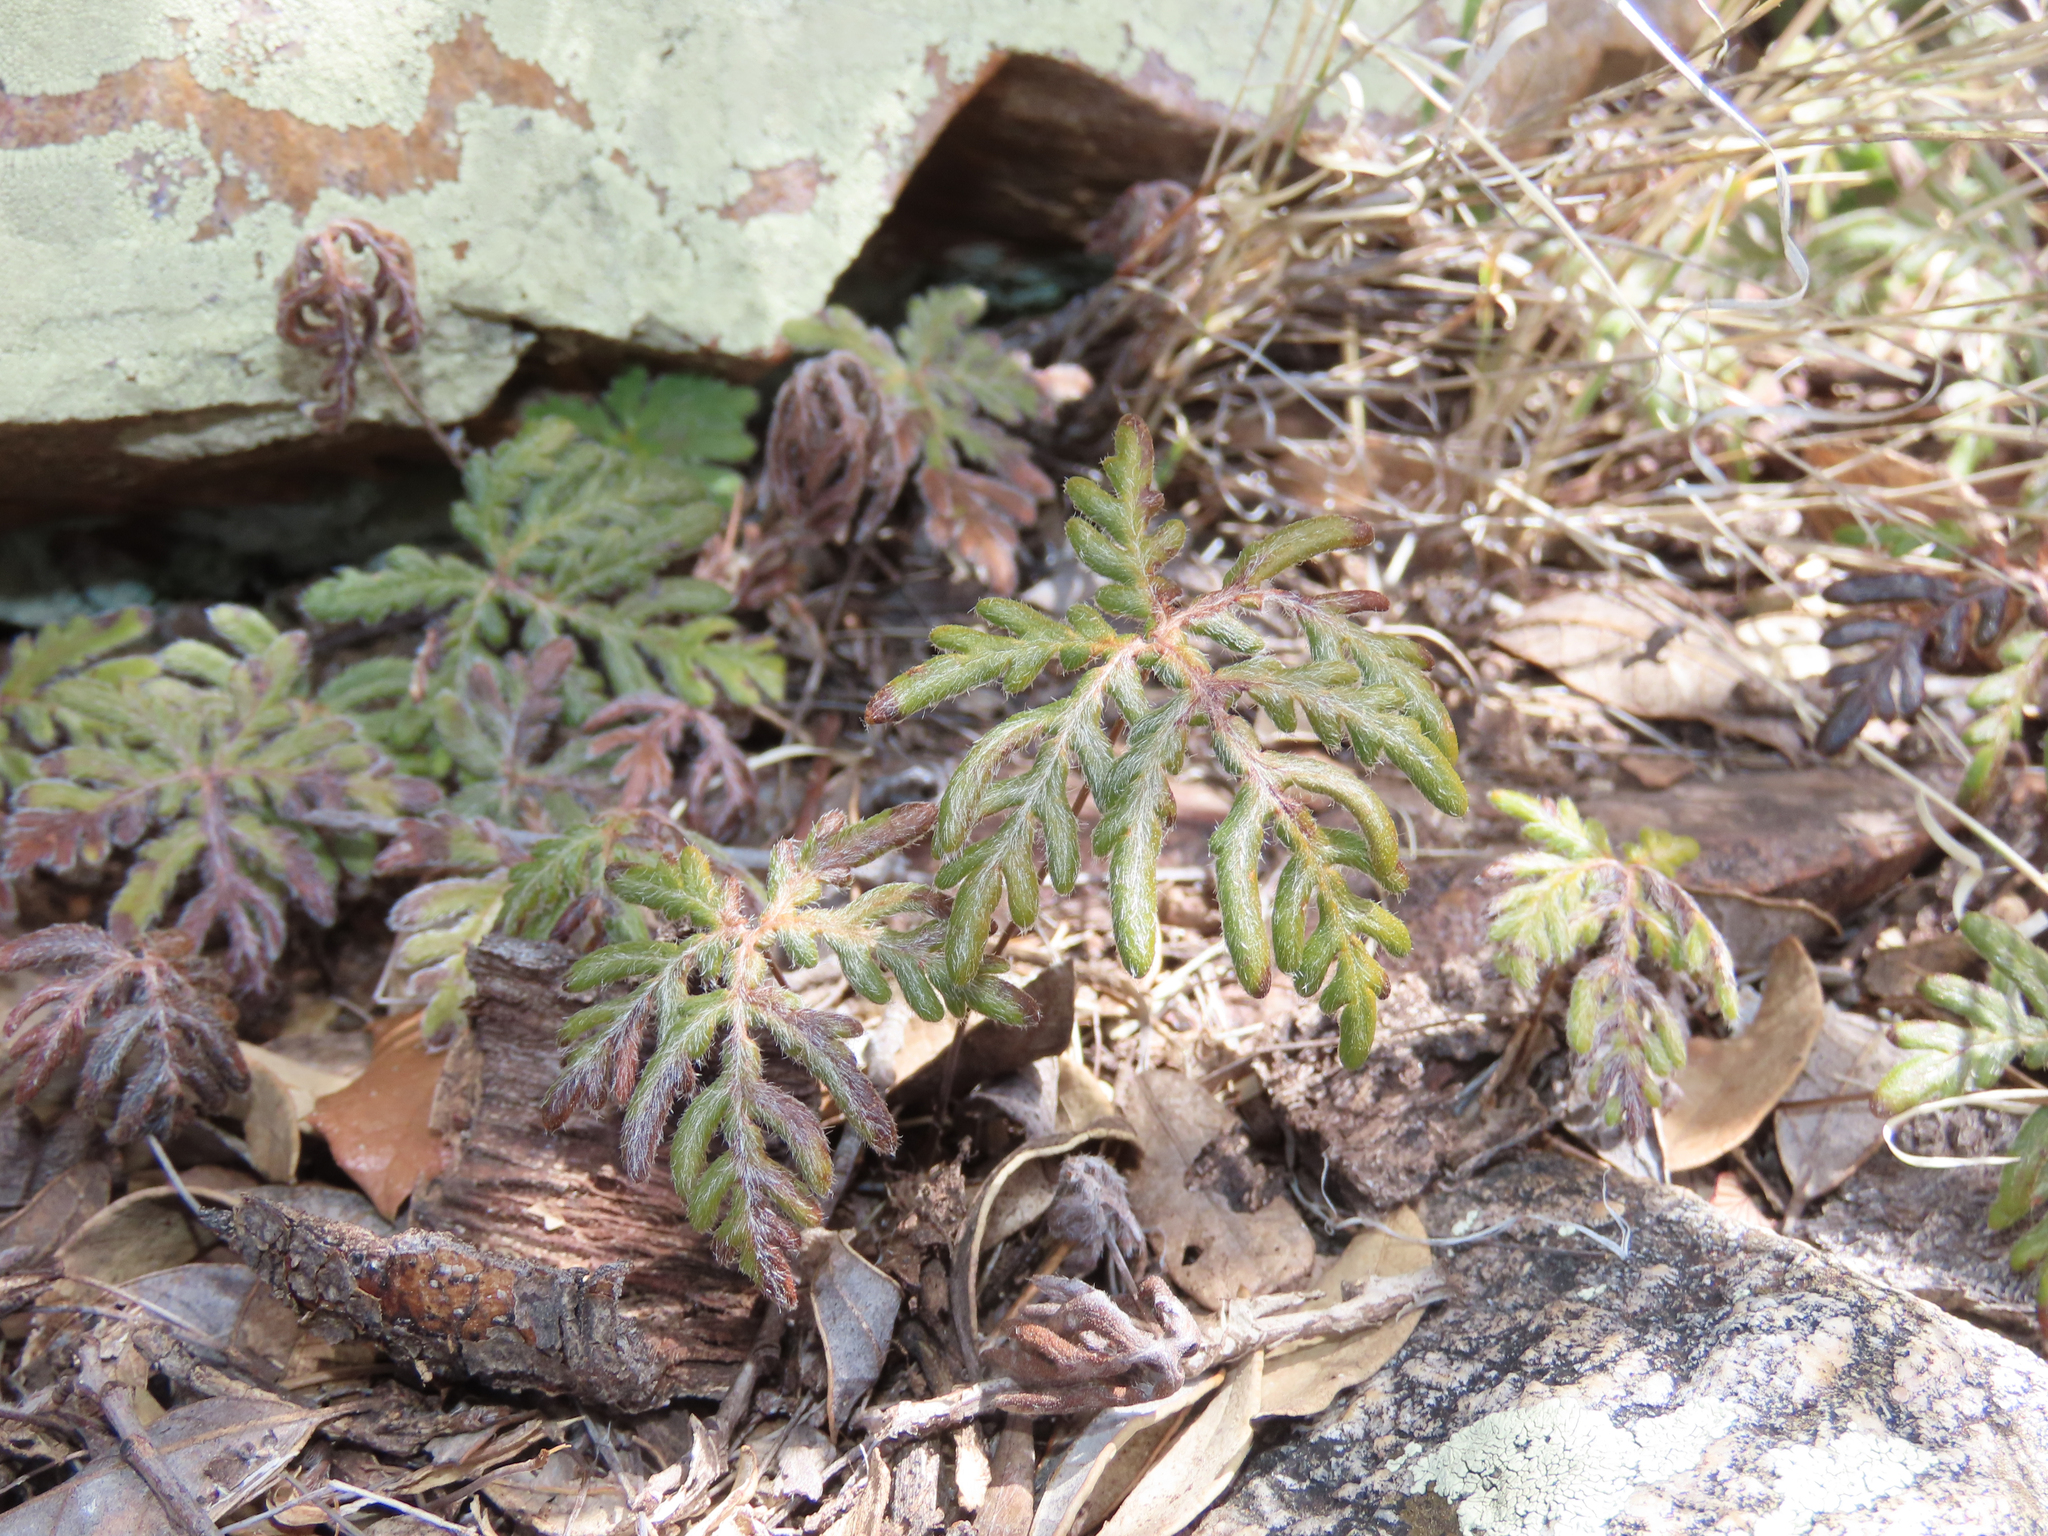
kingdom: Plantae
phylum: Tracheophyta
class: Polypodiopsida
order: Polypodiales
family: Pteridaceae
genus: Bommeria
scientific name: Bommeria hispida
